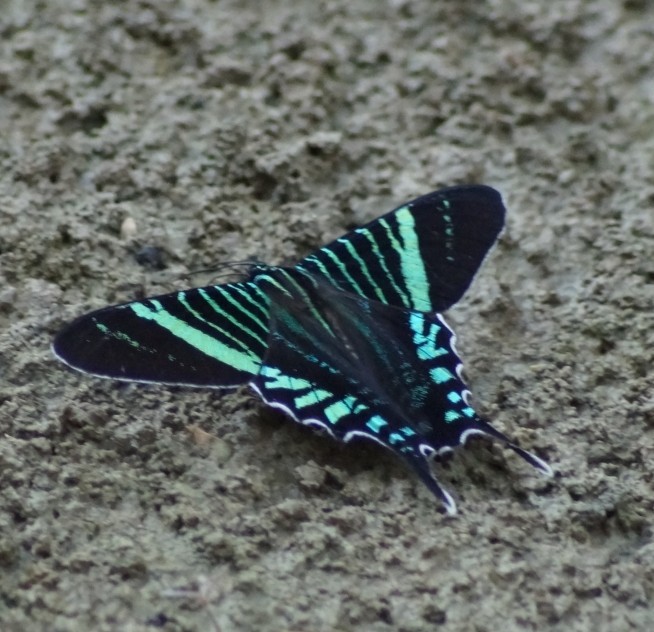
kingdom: Animalia
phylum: Arthropoda
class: Insecta
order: Lepidoptera
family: Uraniidae
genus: Urania
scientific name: Urania fulgens
